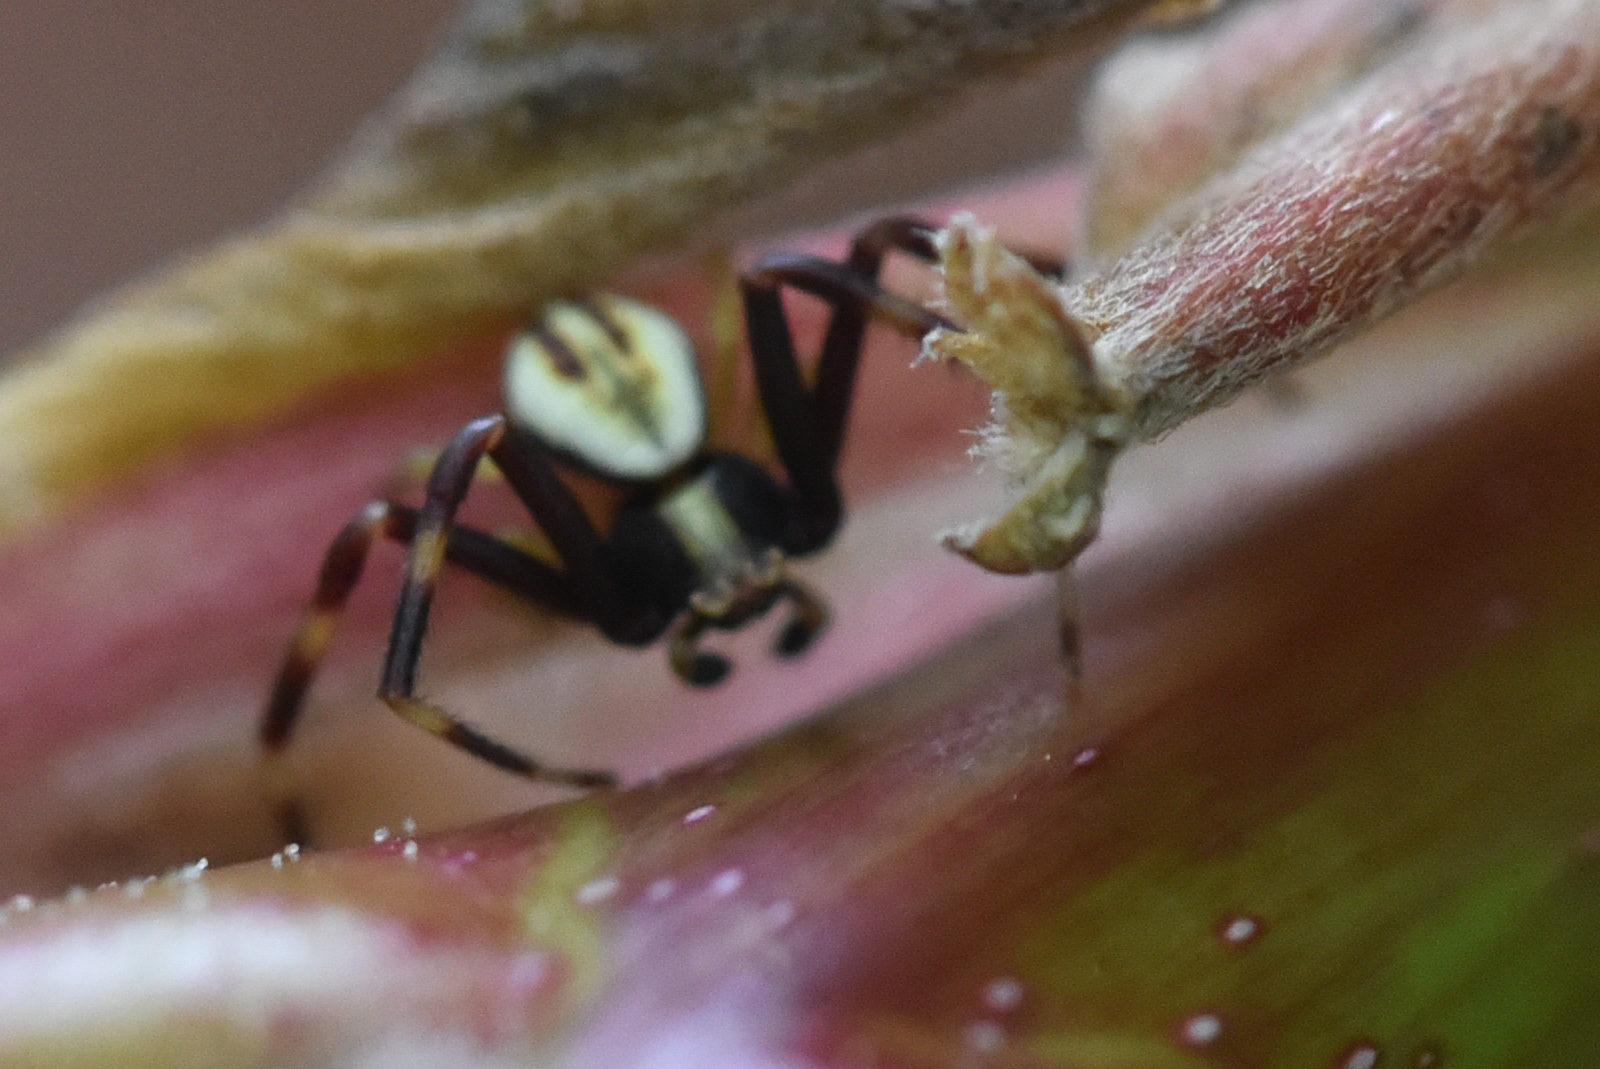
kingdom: Animalia
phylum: Arthropoda
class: Arachnida
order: Araneae
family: Thomisidae
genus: Misumena
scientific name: Misumena vatia
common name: Goldenrod crab spider
